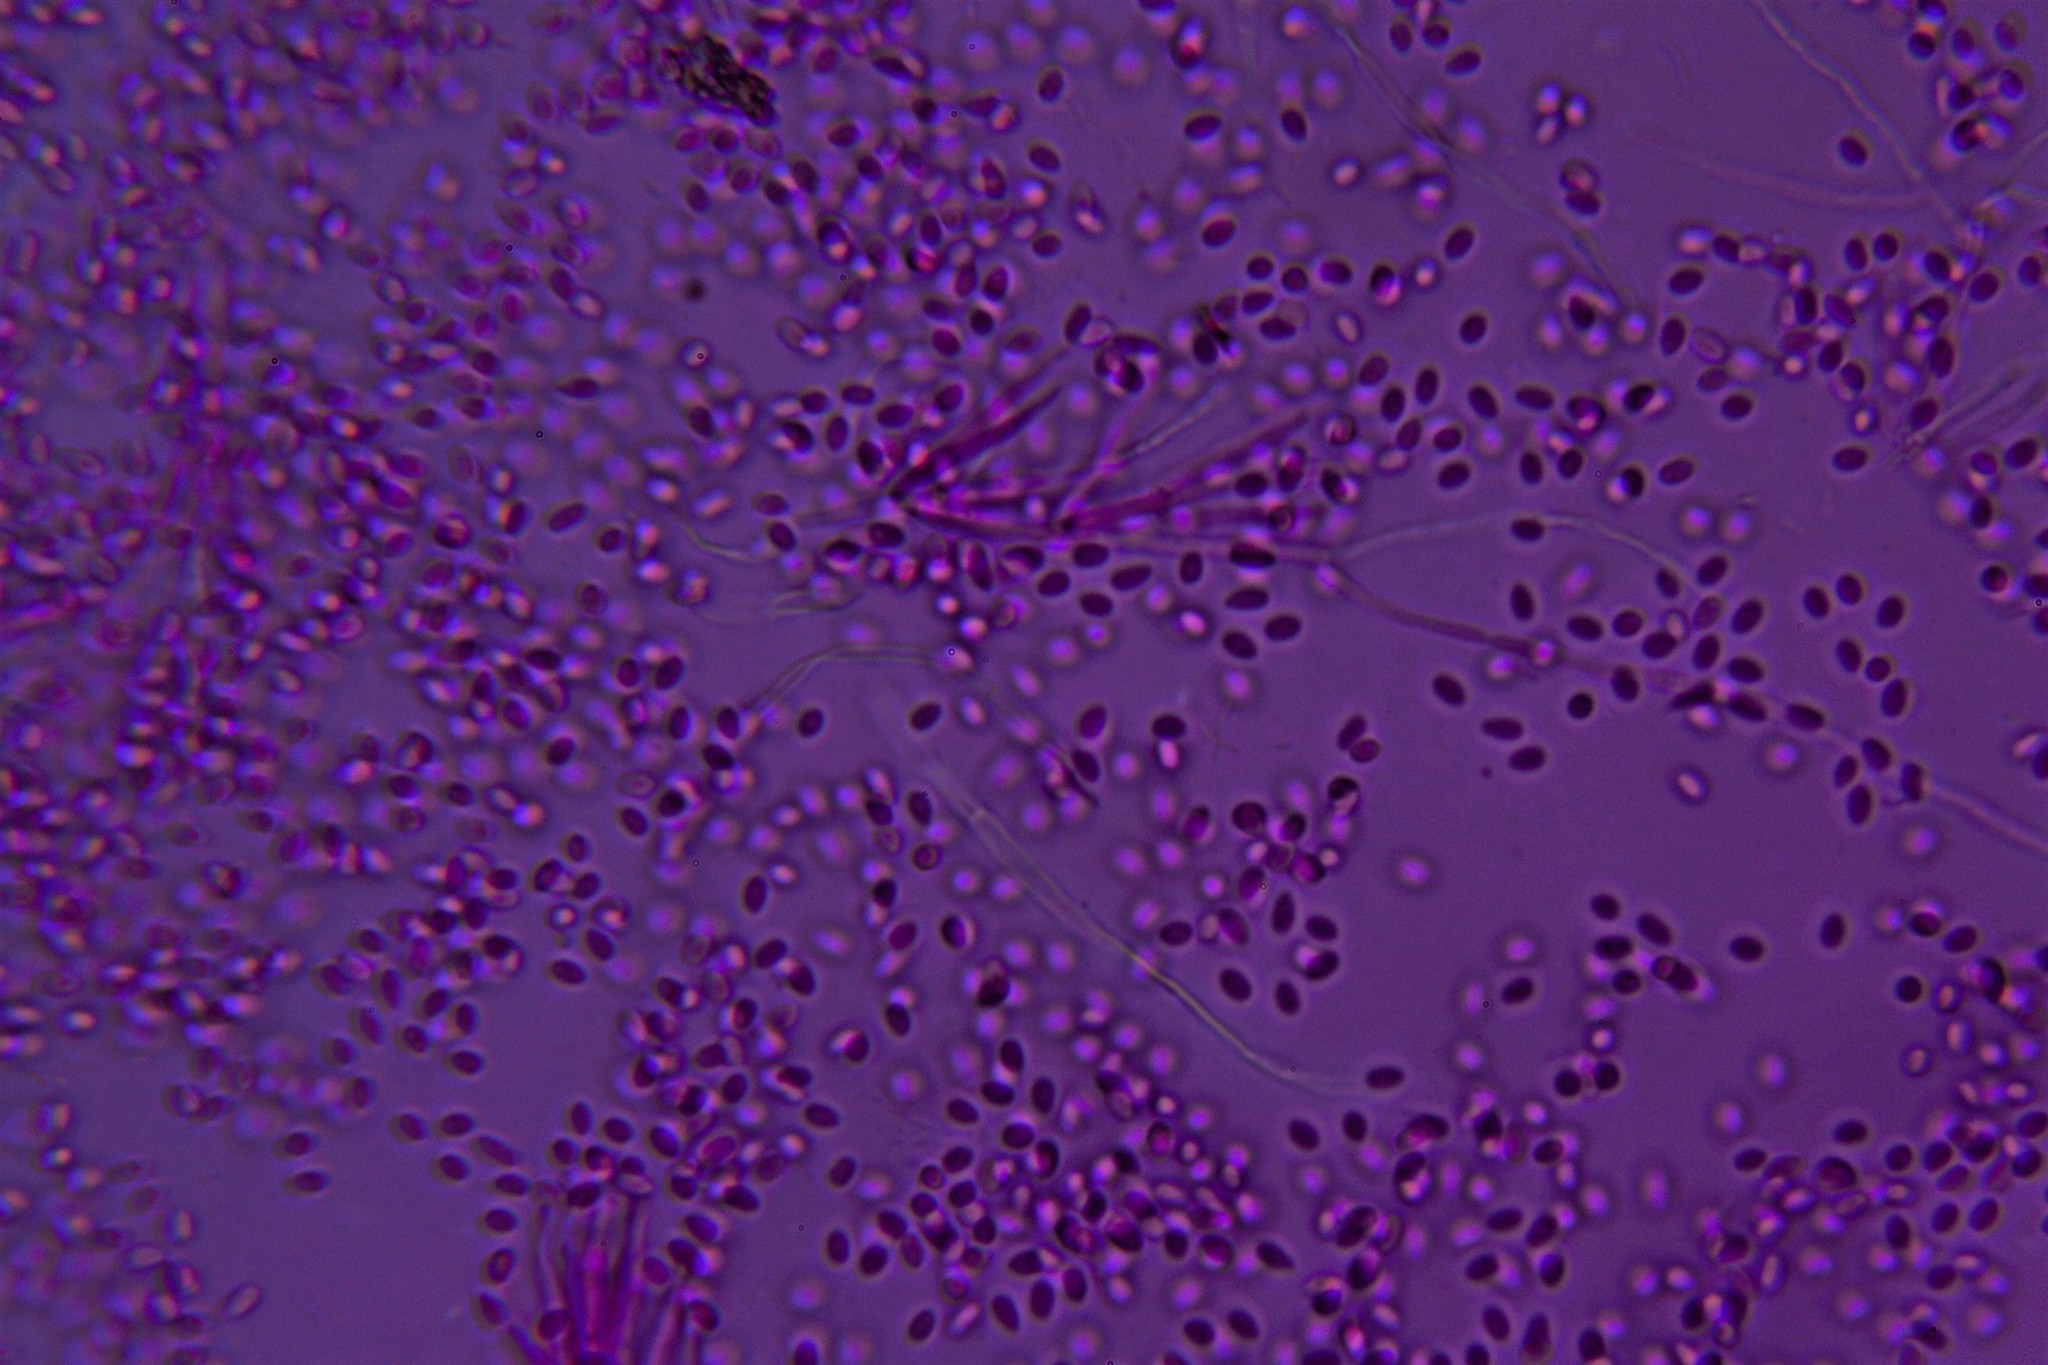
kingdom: Fungi
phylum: Basidiomycota
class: Atractiellomycetes
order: Atractiellales
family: Phleogenaceae
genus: Helicogloea
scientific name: Helicogloea compressa
